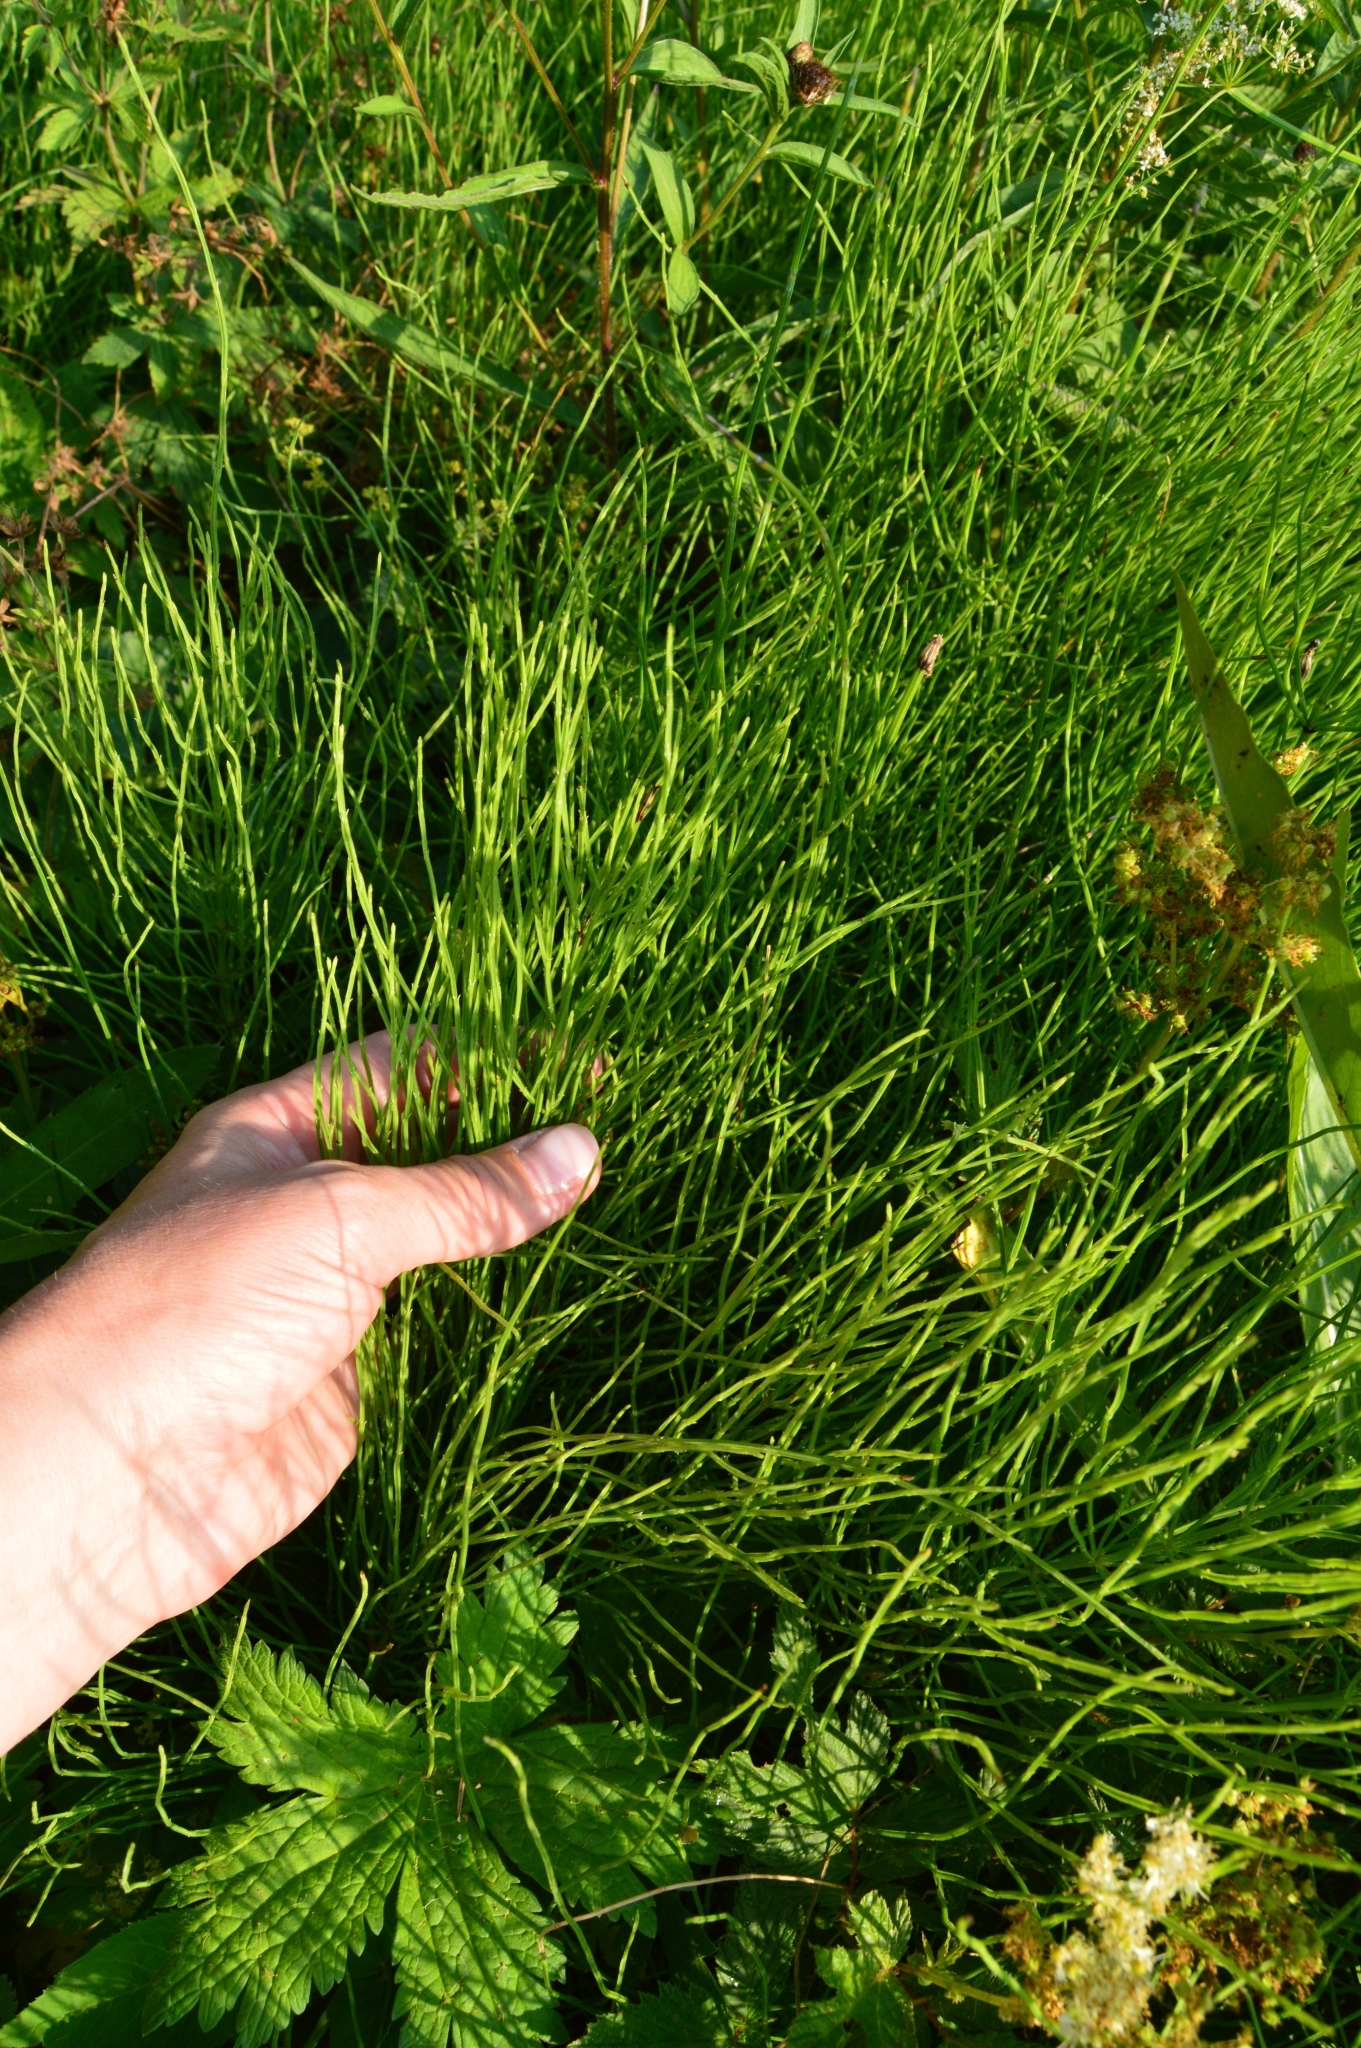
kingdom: Plantae
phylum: Tracheophyta
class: Polypodiopsida
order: Equisetales
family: Equisetaceae
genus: Equisetum
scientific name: Equisetum arvense
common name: Field horsetail
